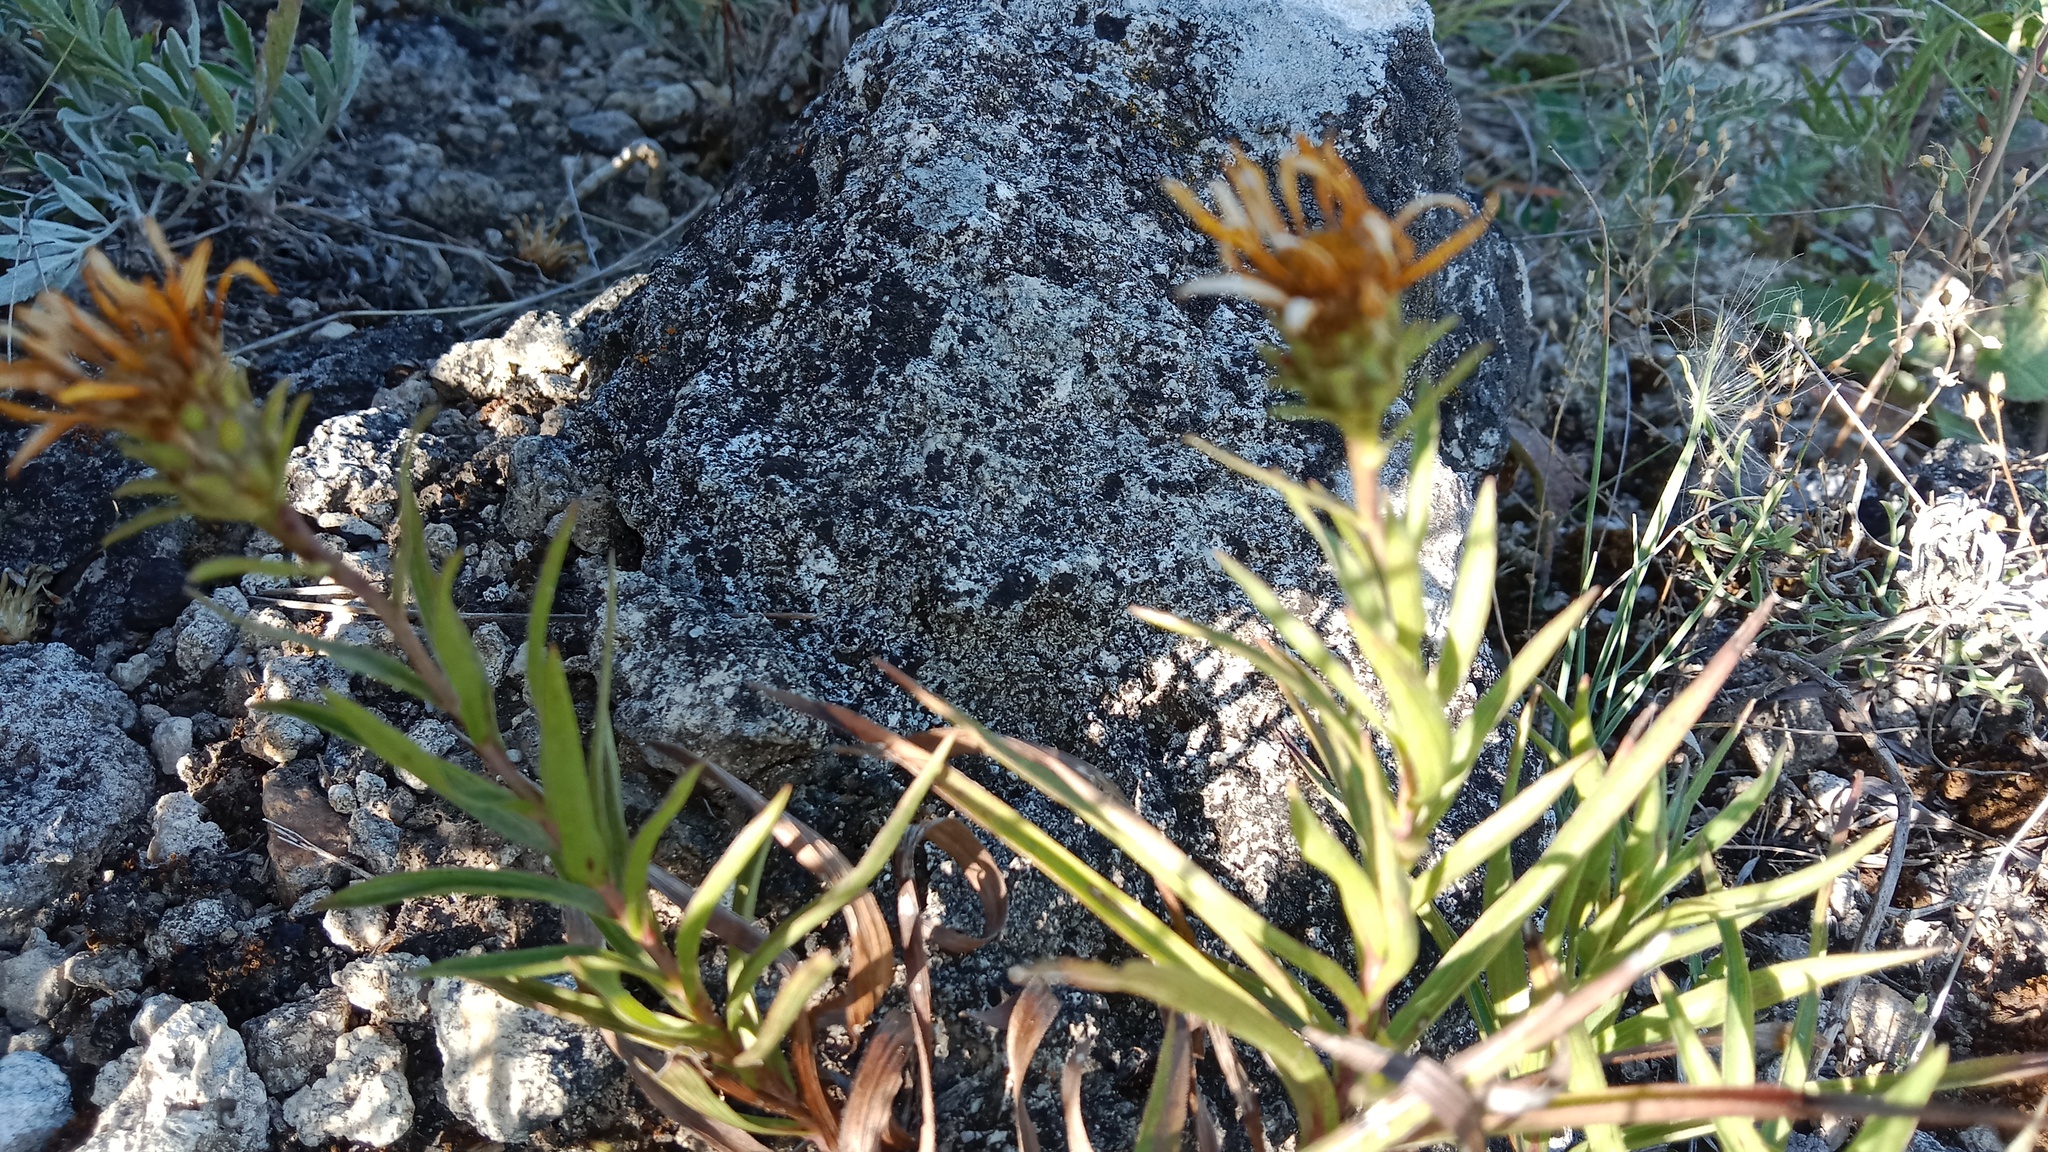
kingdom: Plantae
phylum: Tracheophyta
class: Magnoliopsida
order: Asterales
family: Asteraceae
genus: Pentanema
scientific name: Pentanema ensifolium
